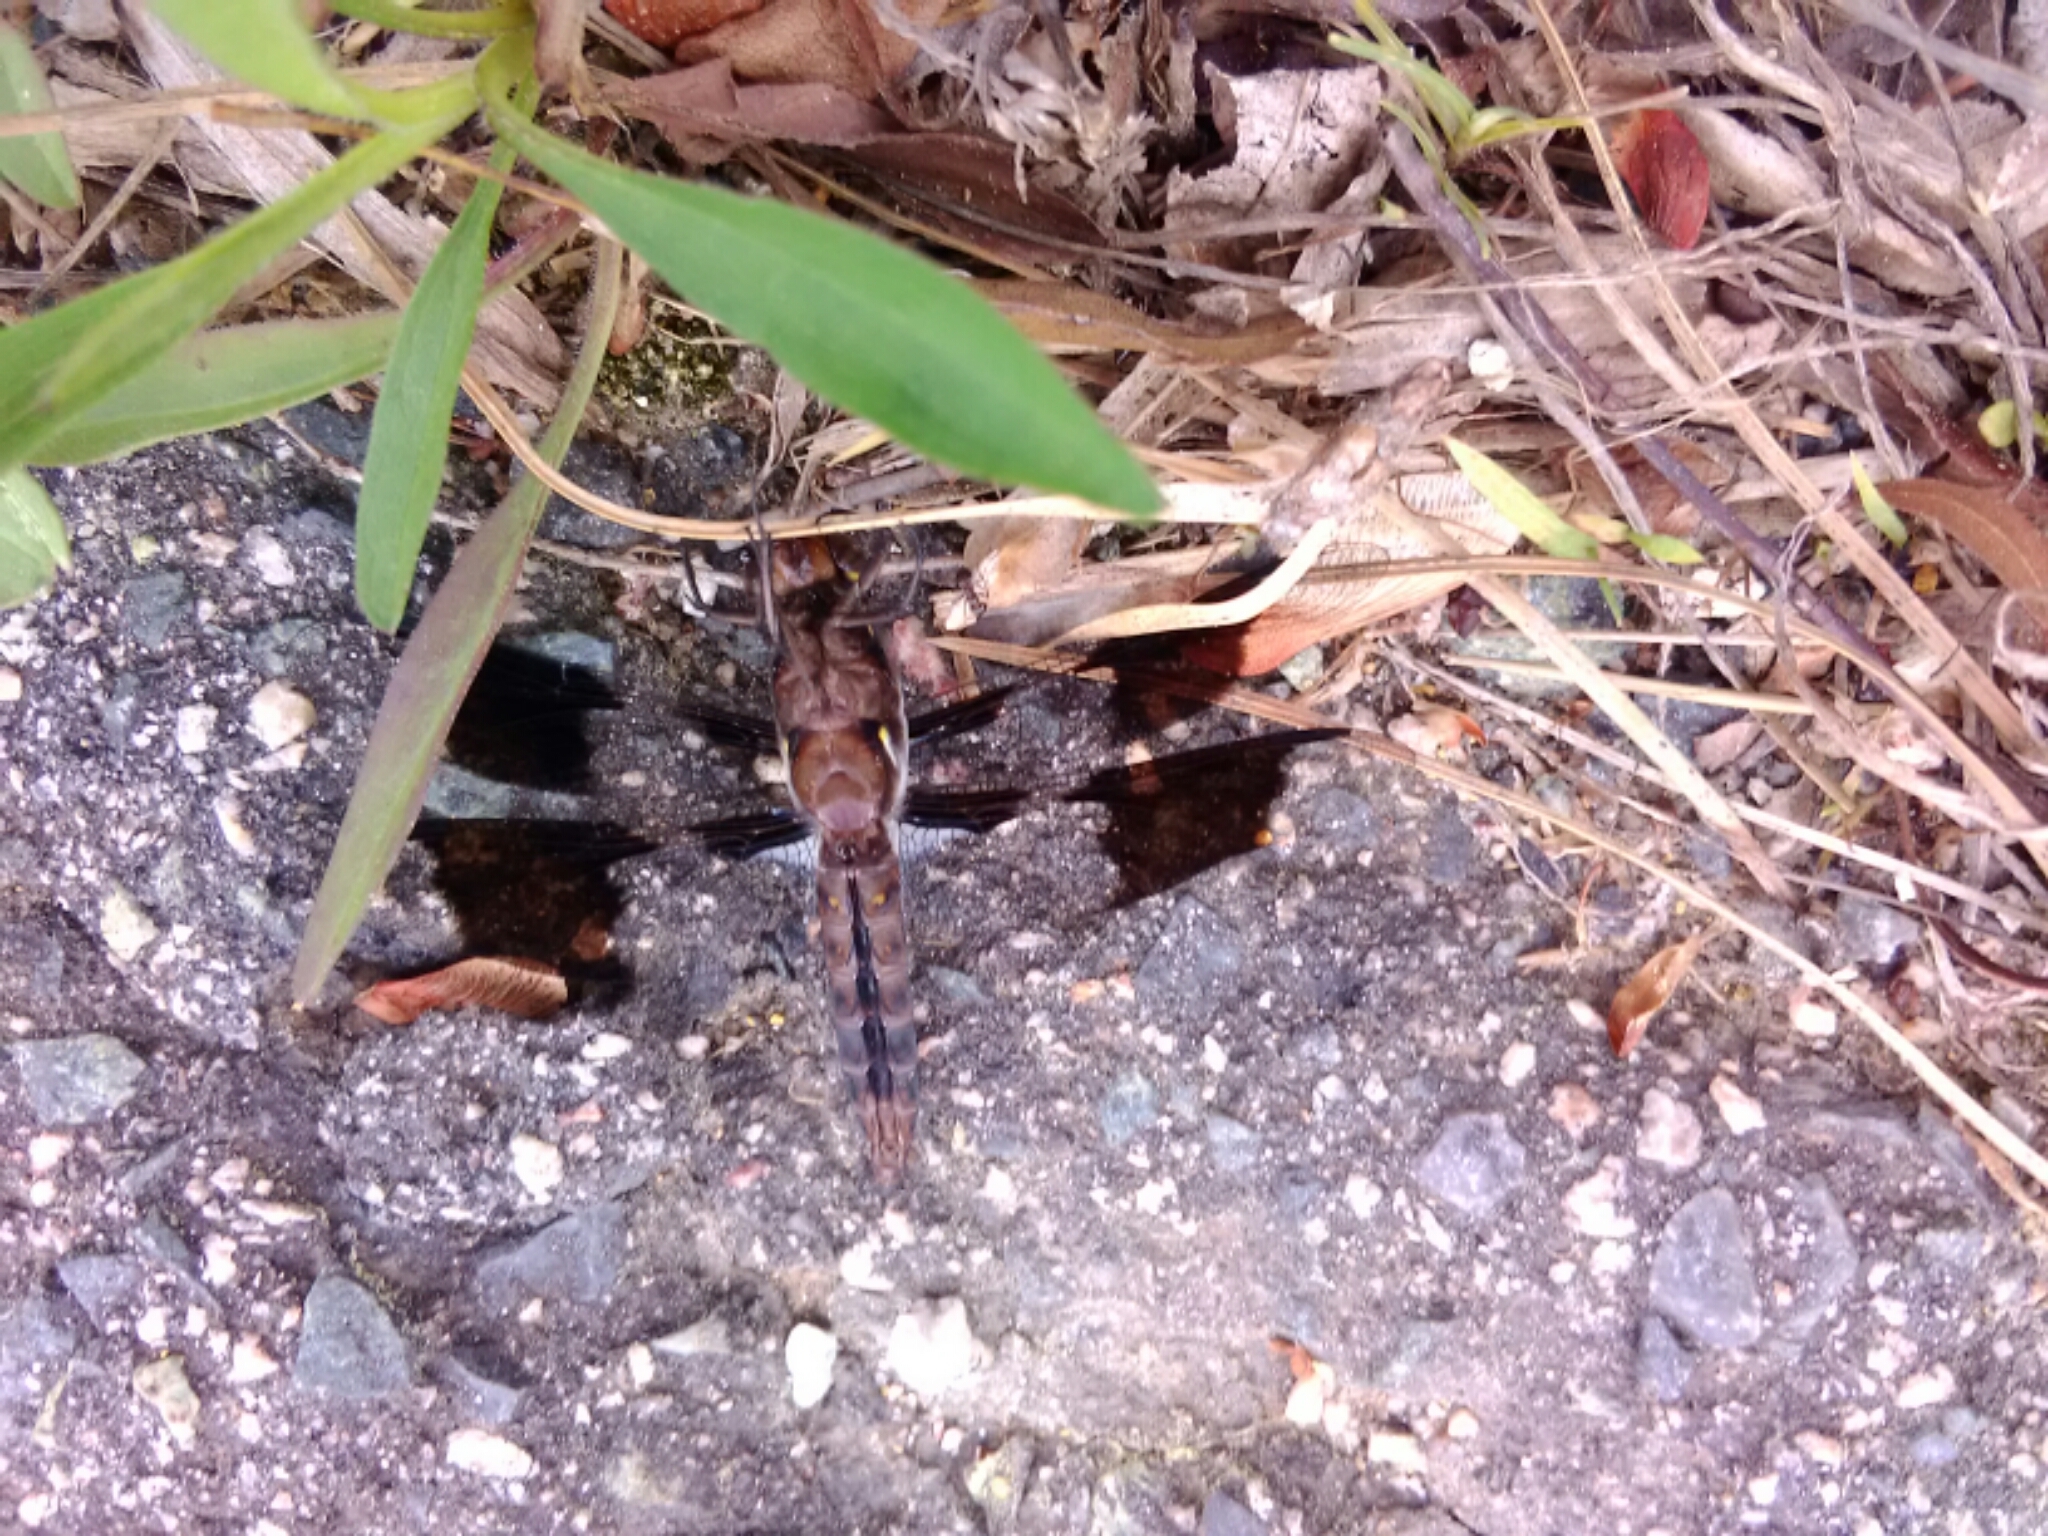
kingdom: Animalia
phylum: Arthropoda
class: Insecta
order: Odonata
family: Libellulidae
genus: Plathemis
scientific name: Plathemis lydia
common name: Common whitetail
